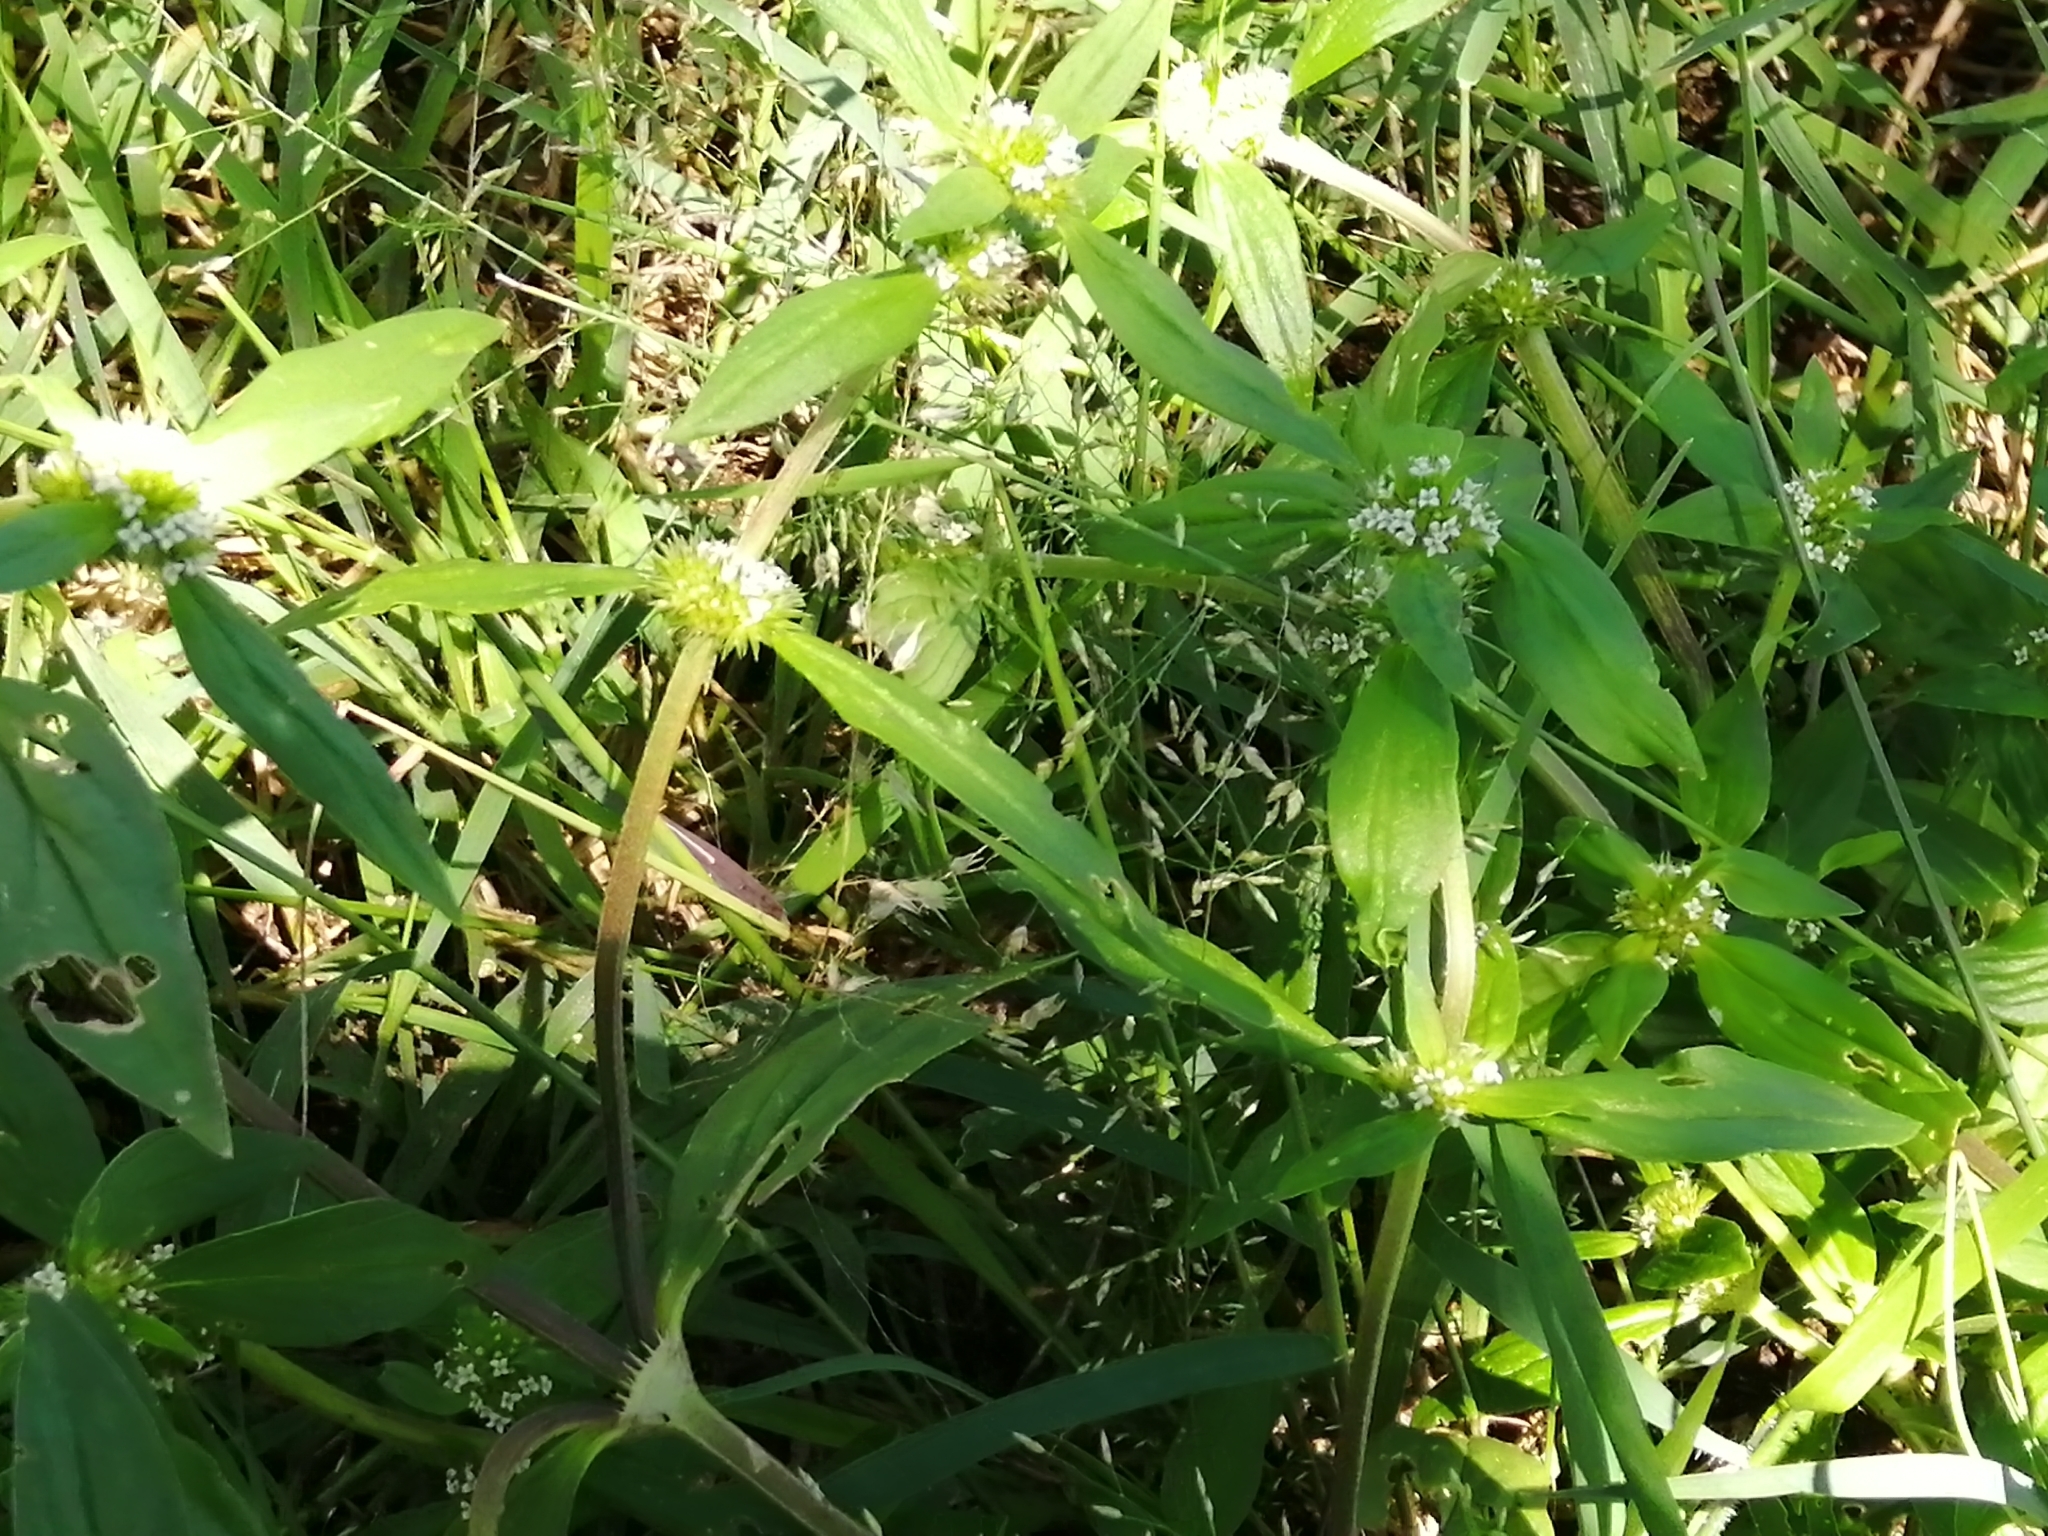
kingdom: Plantae
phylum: Tracheophyta
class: Magnoliopsida
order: Gentianales
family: Rubiaceae
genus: Spermacoce
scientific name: Spermacoce verticillata
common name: Shrubby false buttonweed
